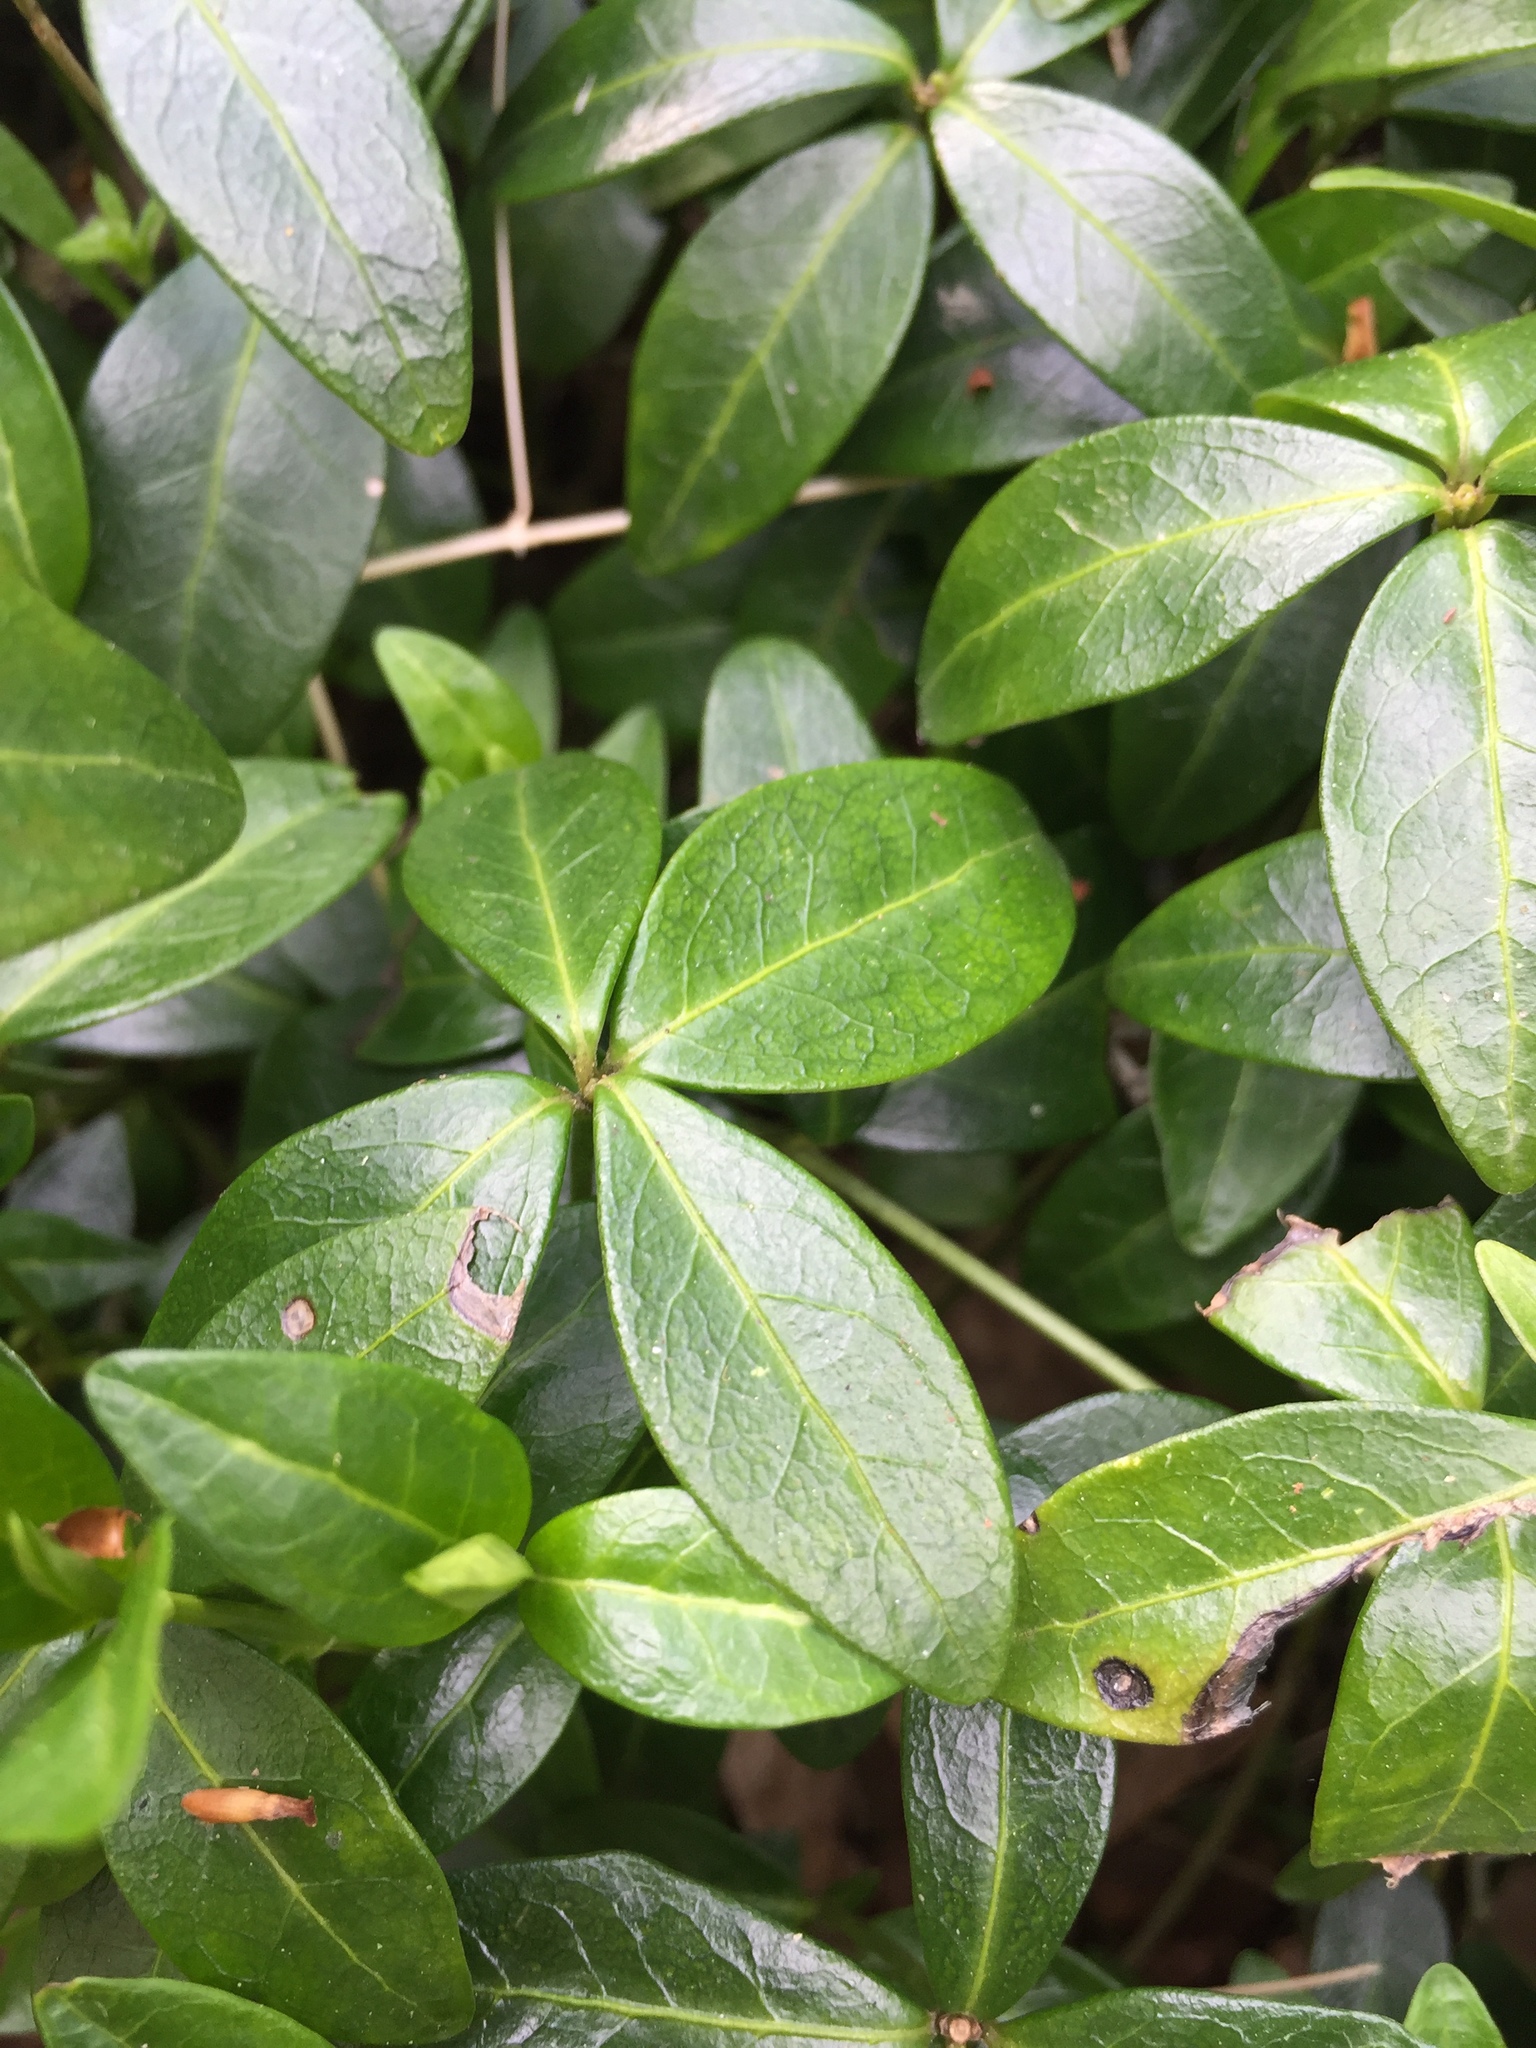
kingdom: Plantae
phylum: Tracheophyta
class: Magnoliopsida
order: Gentianales
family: Apocynaceae
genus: Vinca
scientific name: Vinca minor
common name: Lesser periwinkle
